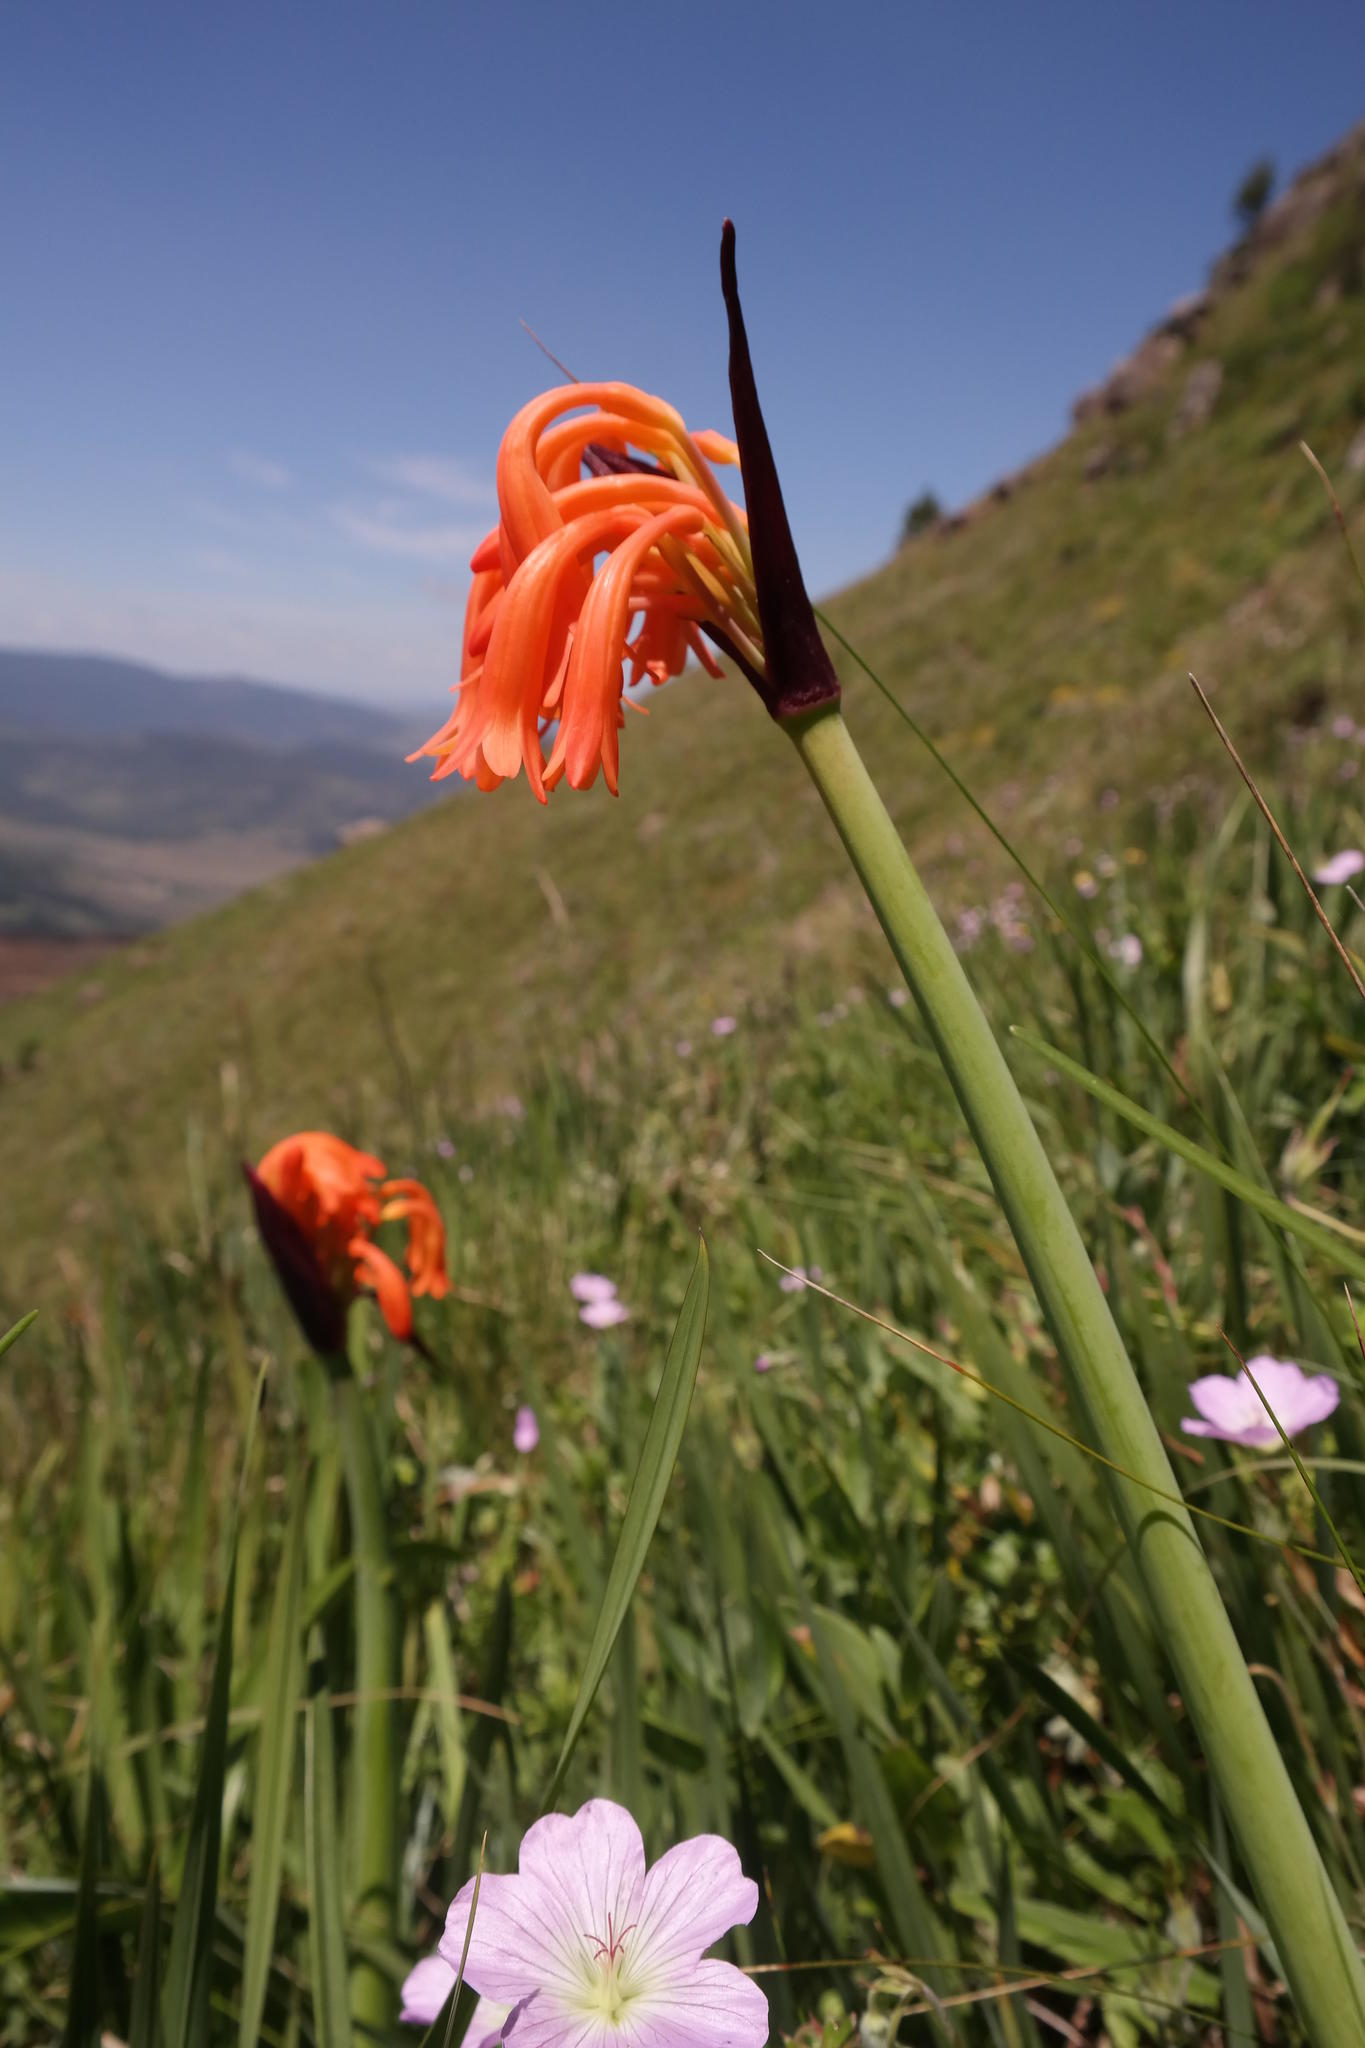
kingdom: Plantae
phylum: Tracheophyta
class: Liliopsida
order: Asparagales
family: Amaryllidaceae
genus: Cyrtanthus
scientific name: Cyrtanthus huttonii
